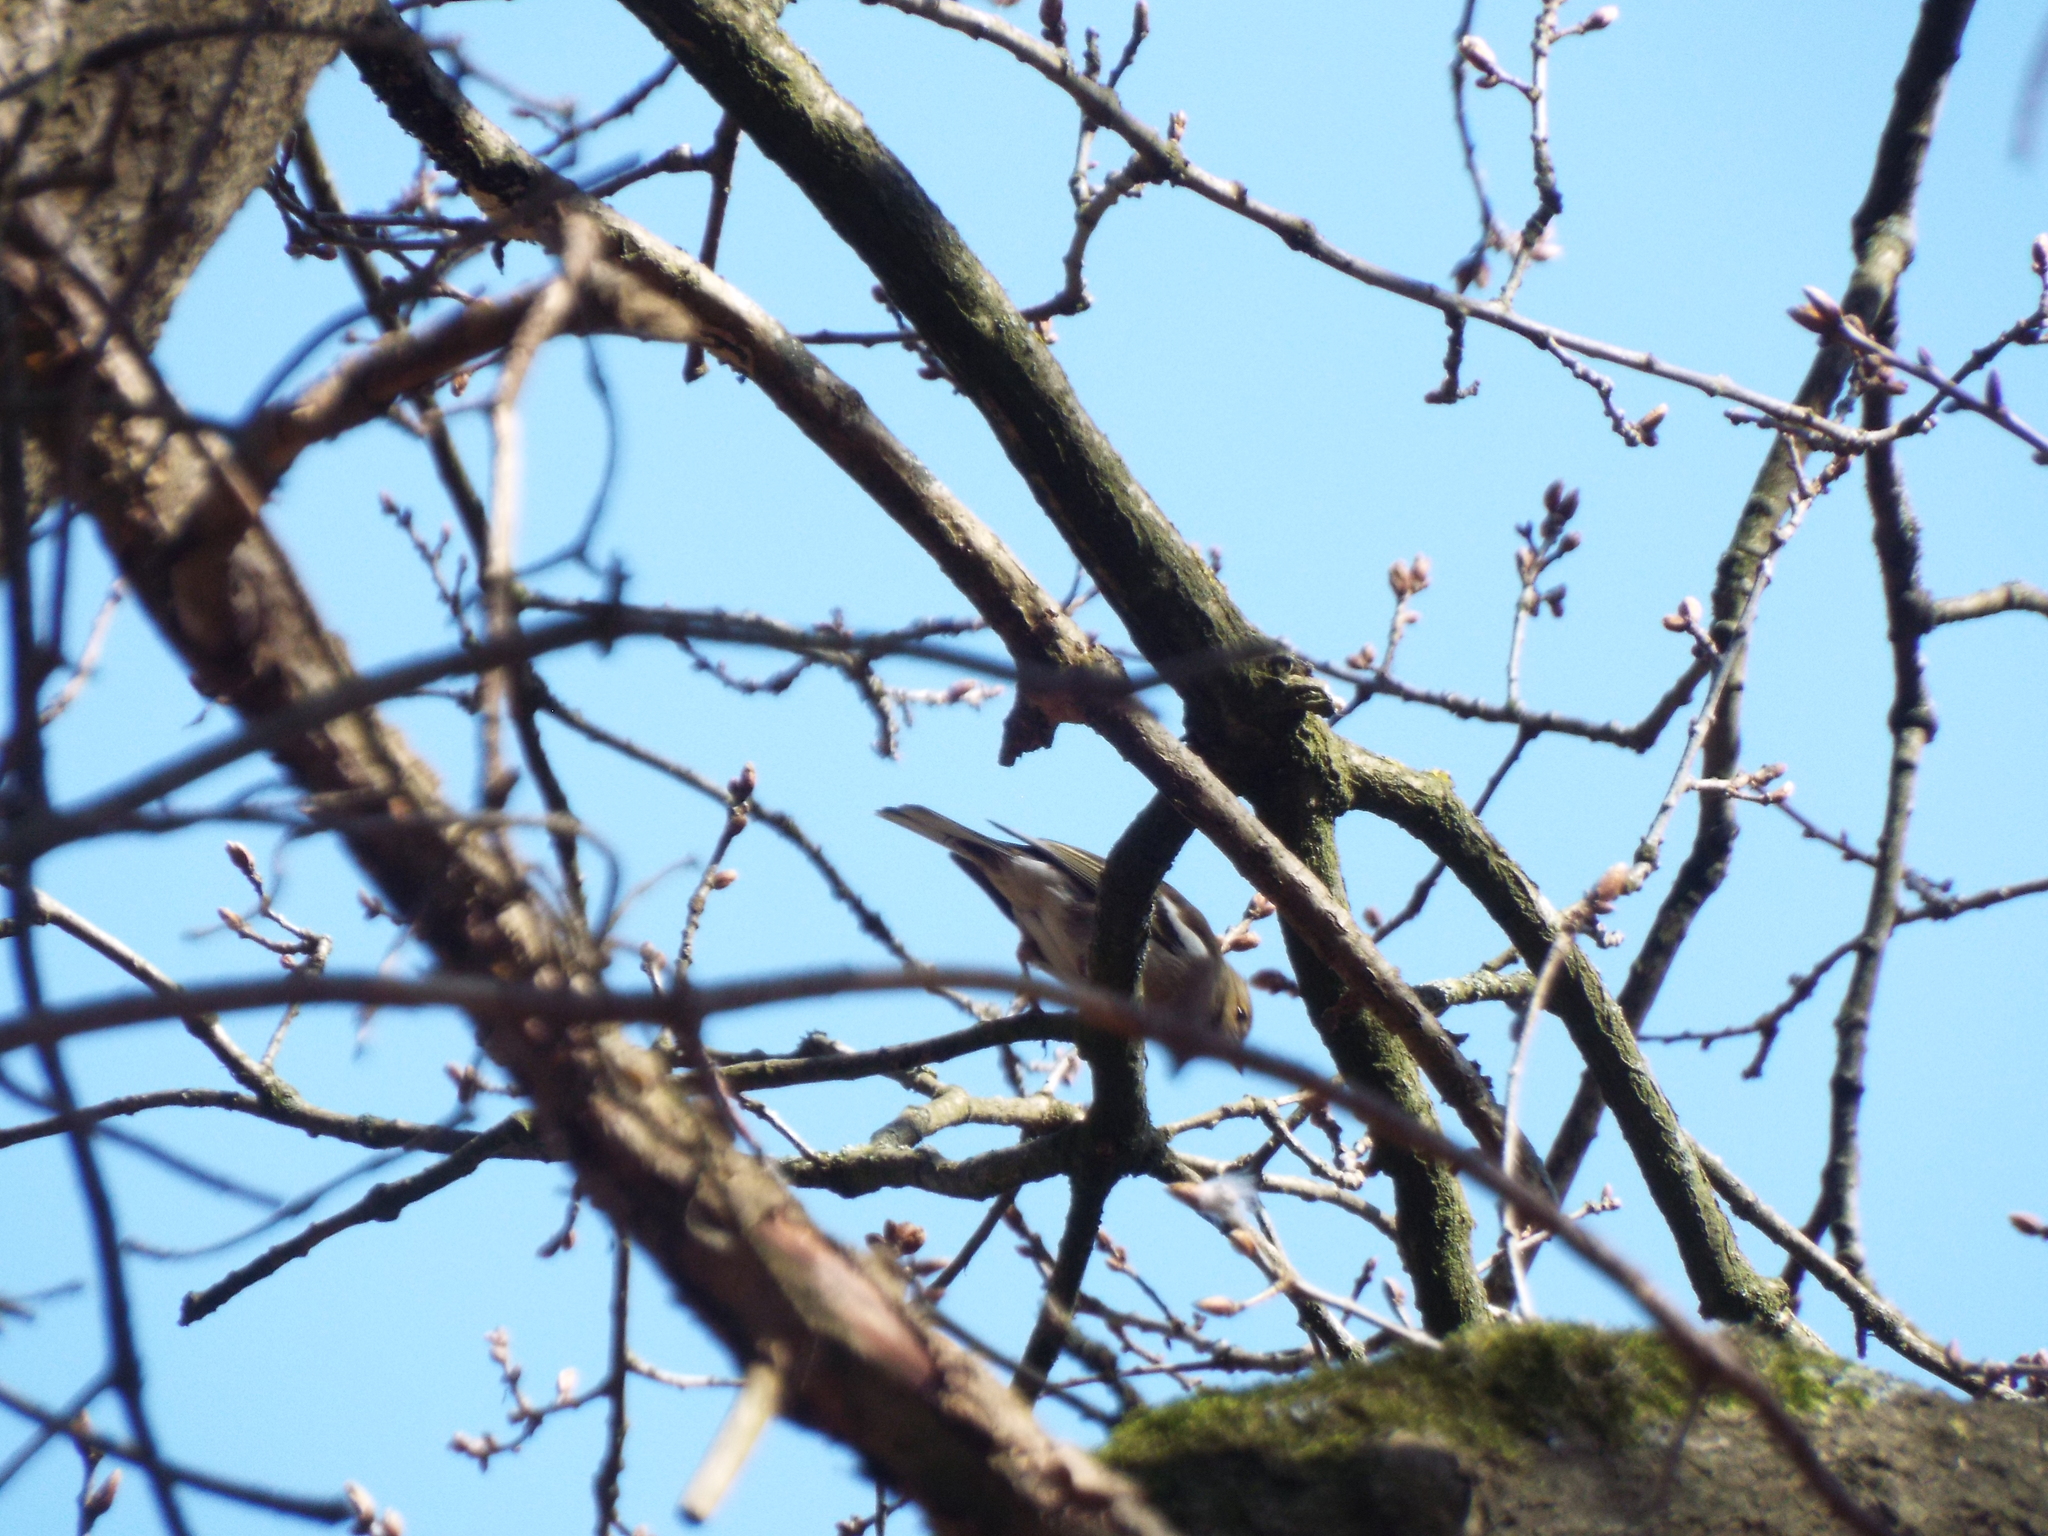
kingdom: Animalia
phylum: Chordata
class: Aves
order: Passeriformes
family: Fringillidae
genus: Fringilla
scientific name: Fringilla coelebs
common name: Common chaffinch
